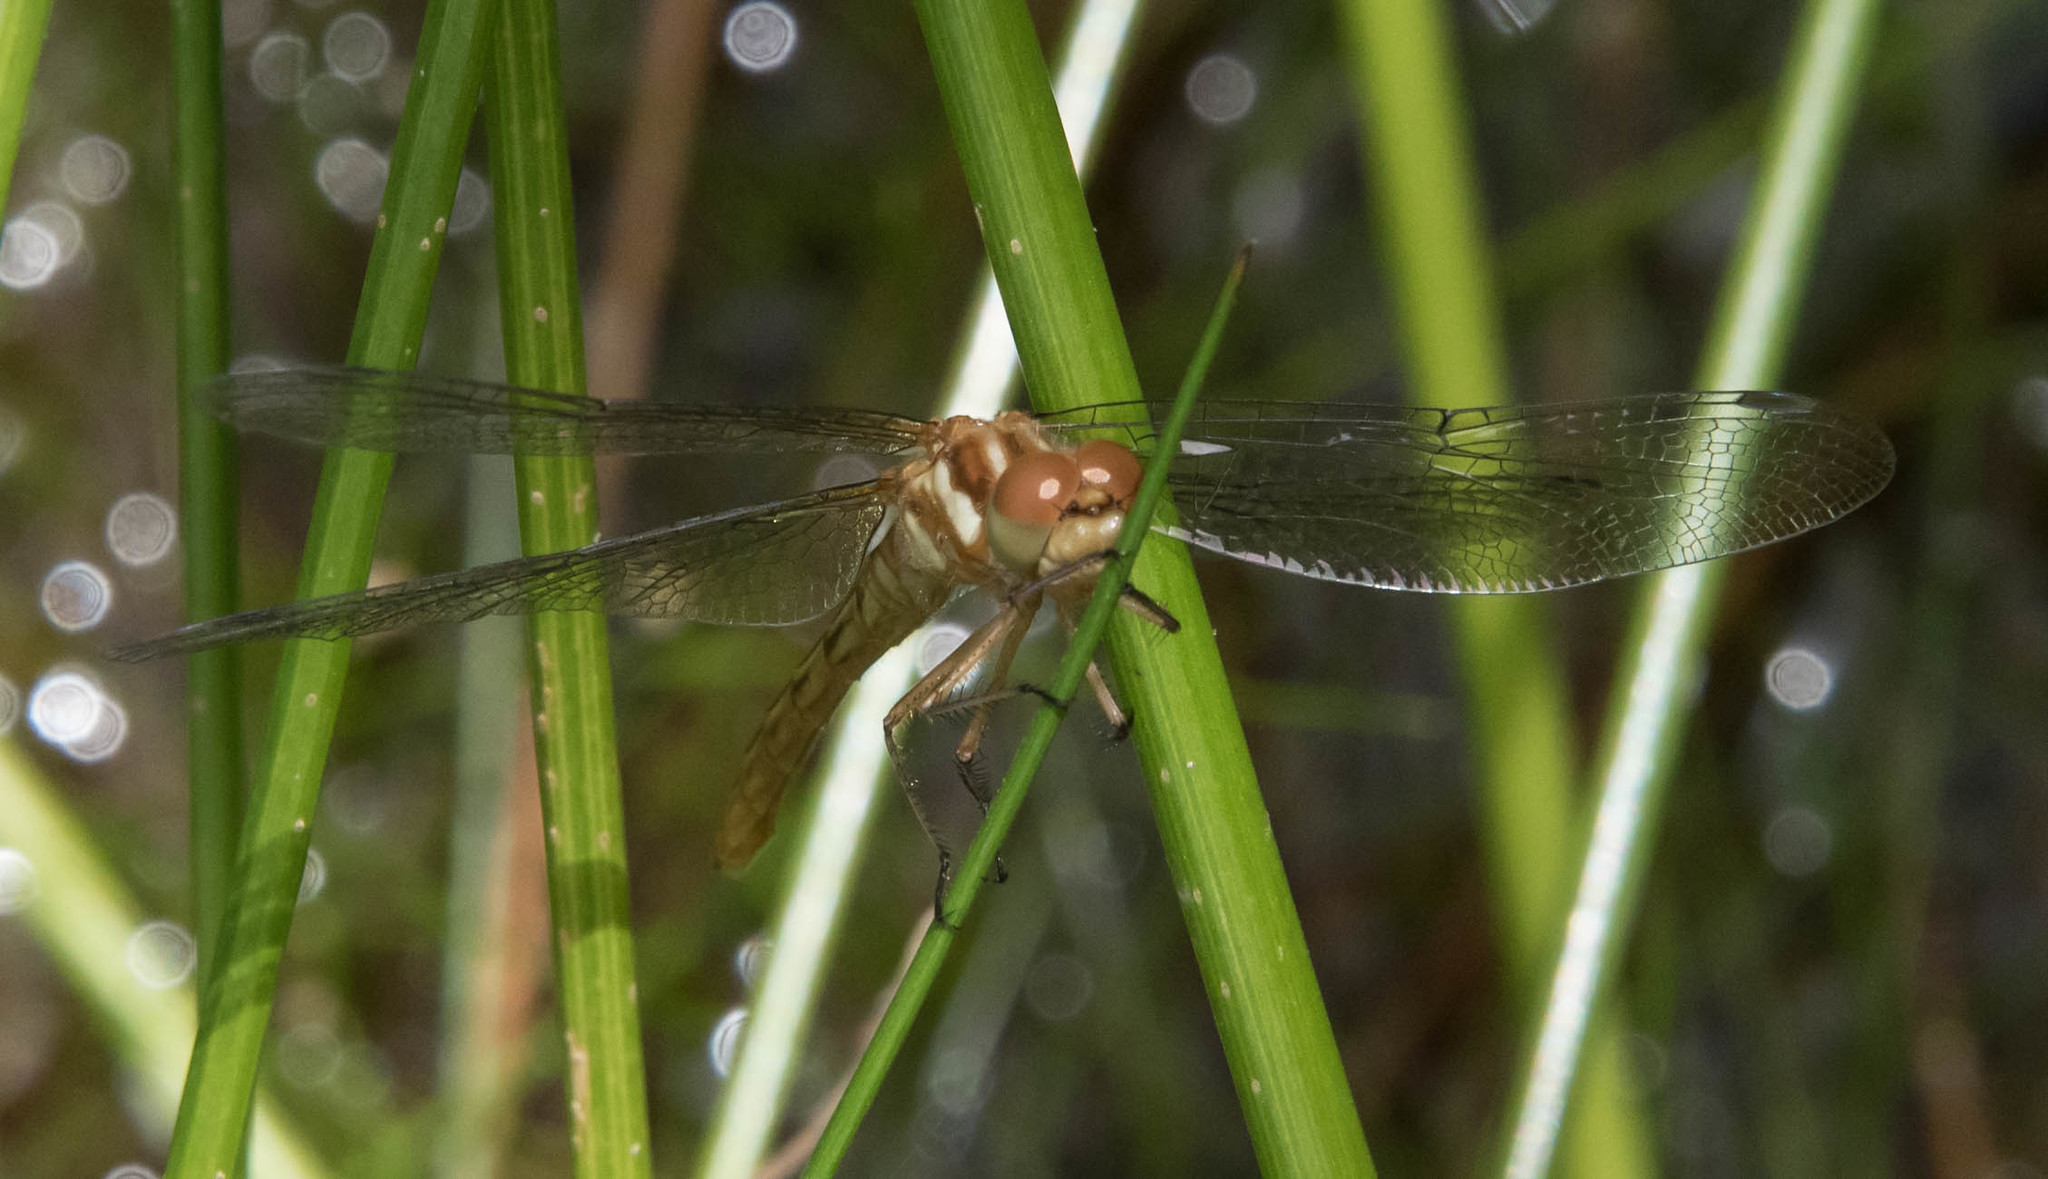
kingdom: Animalia
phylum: Arthropoda
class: Insecta
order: Odonata
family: Libellulidae
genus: Sympetrum
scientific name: Sympetrum pallipes
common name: Striped meadowhawk
